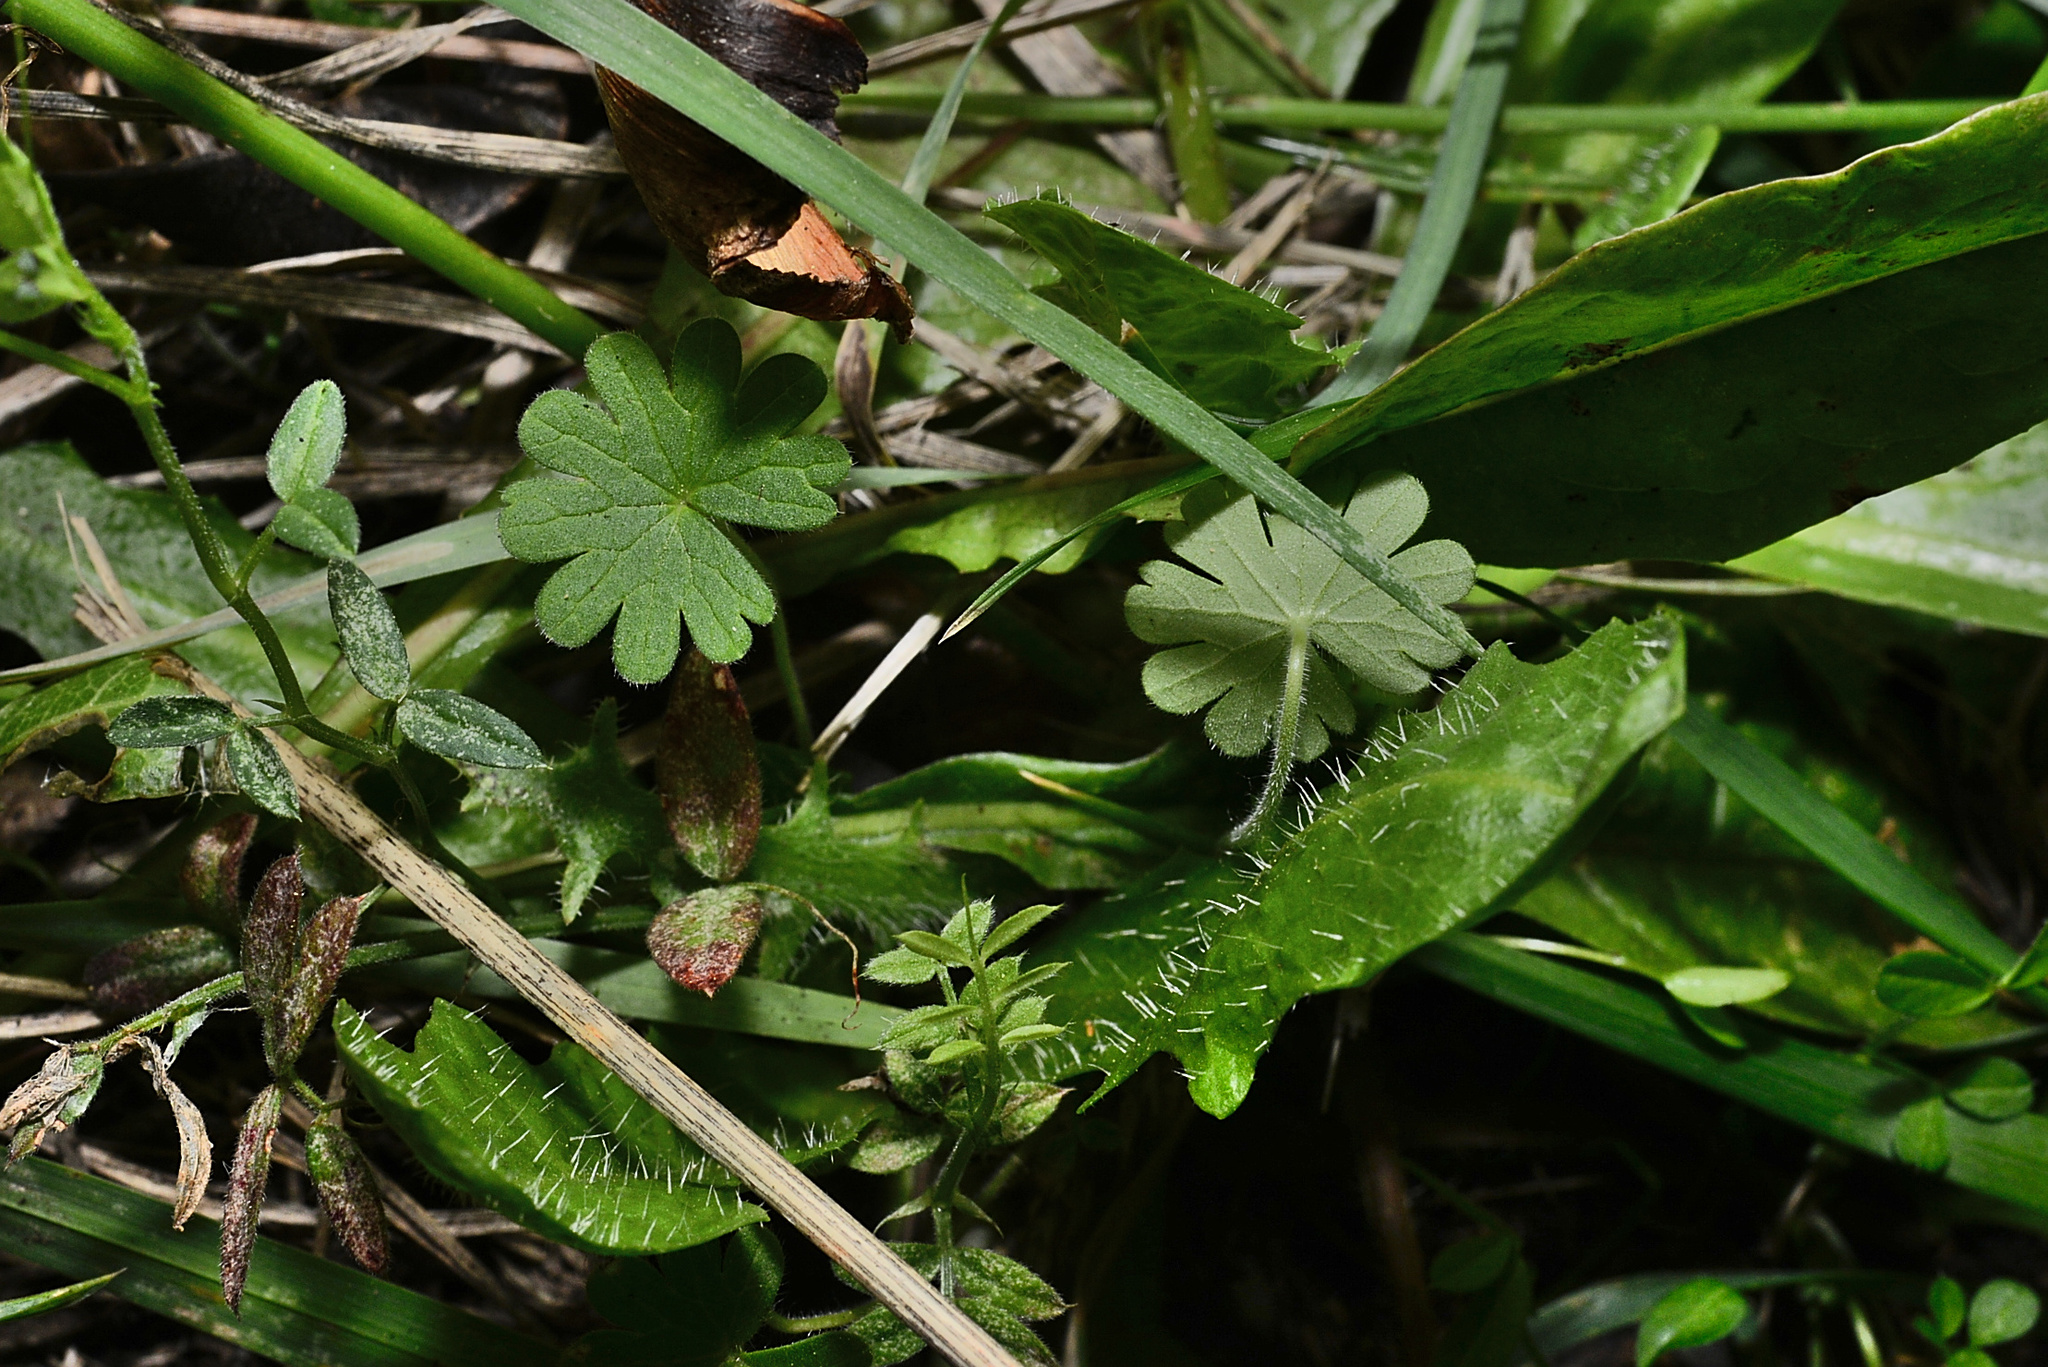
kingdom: Plantae
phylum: Tracheophyta
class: Magnoliopsida
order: Geraniales
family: Geraniaceae
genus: Geranium
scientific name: Geranium molle
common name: Dove's-foot crane's-bill
